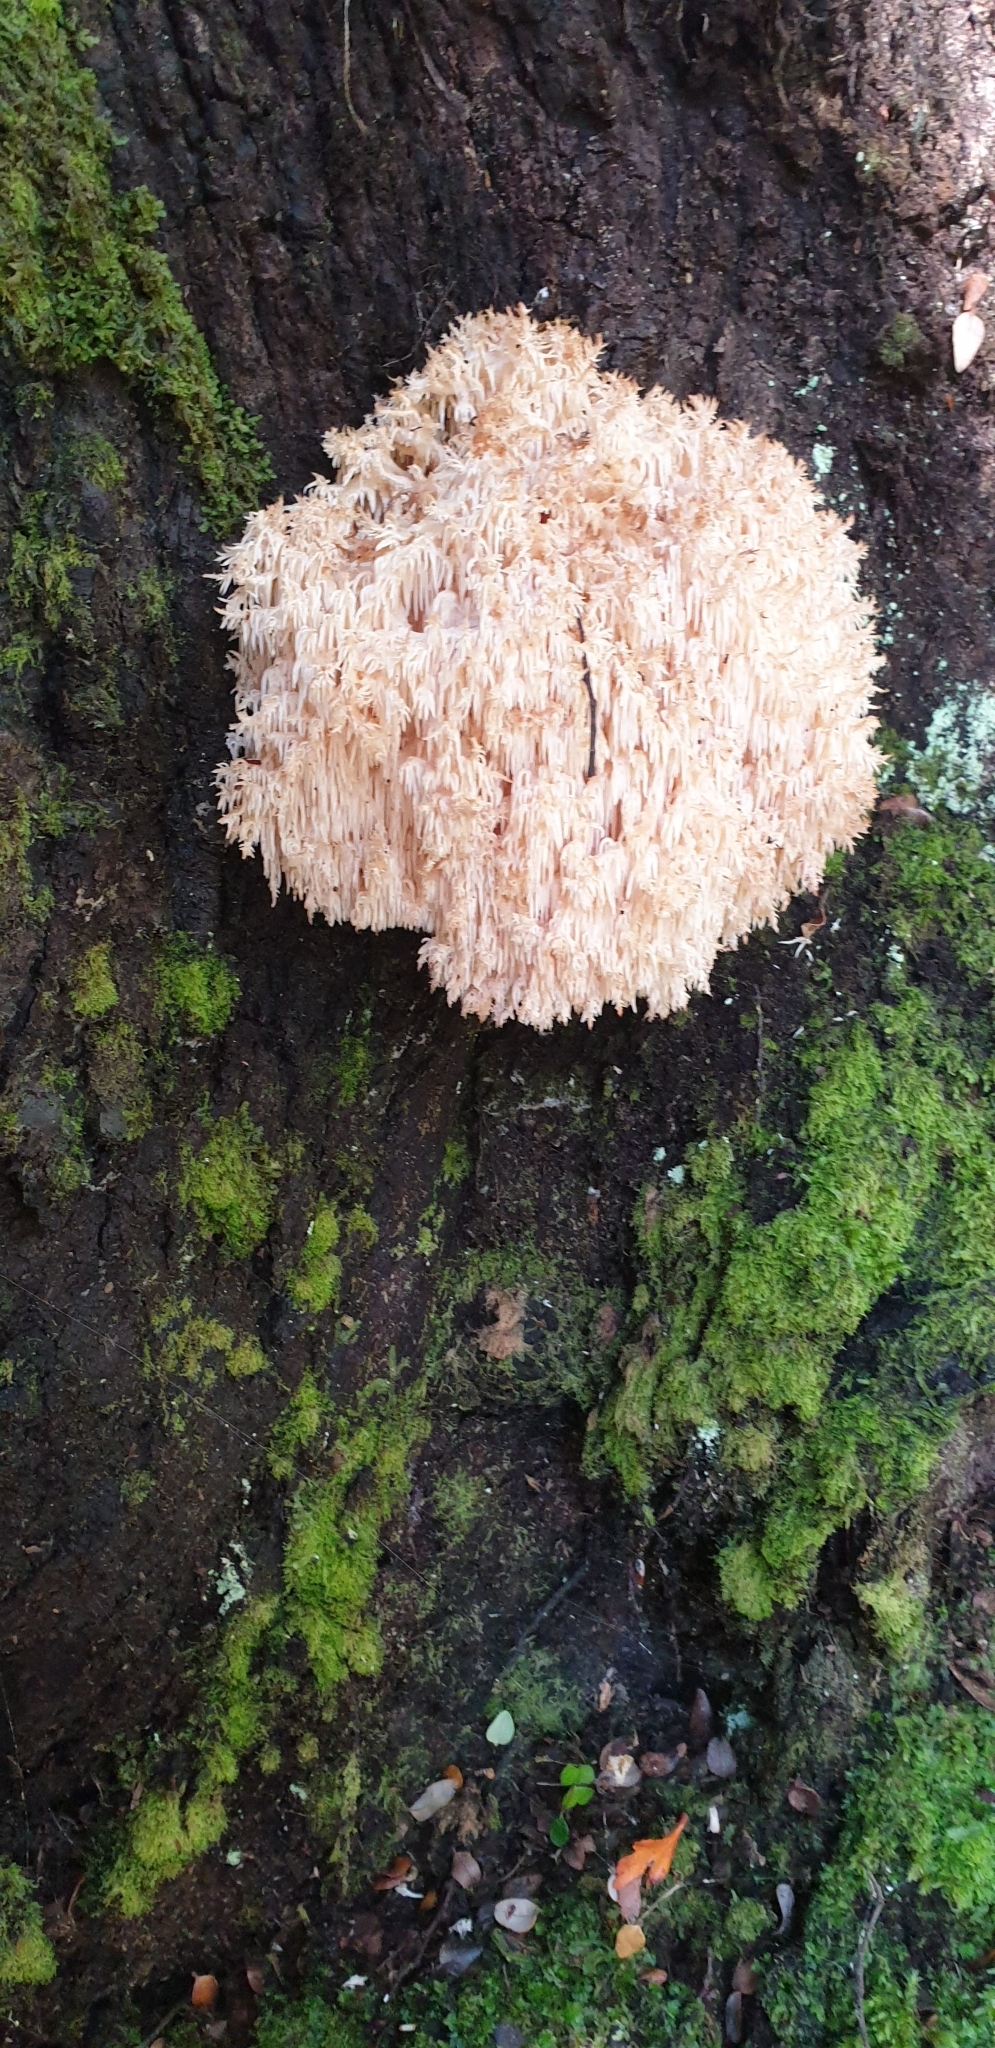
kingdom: Fungi
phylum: Basidiomycota
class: Agaricomycetes
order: Russulales
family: Hericiaceae
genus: Hericium
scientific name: Hericium novae-zealandiae
